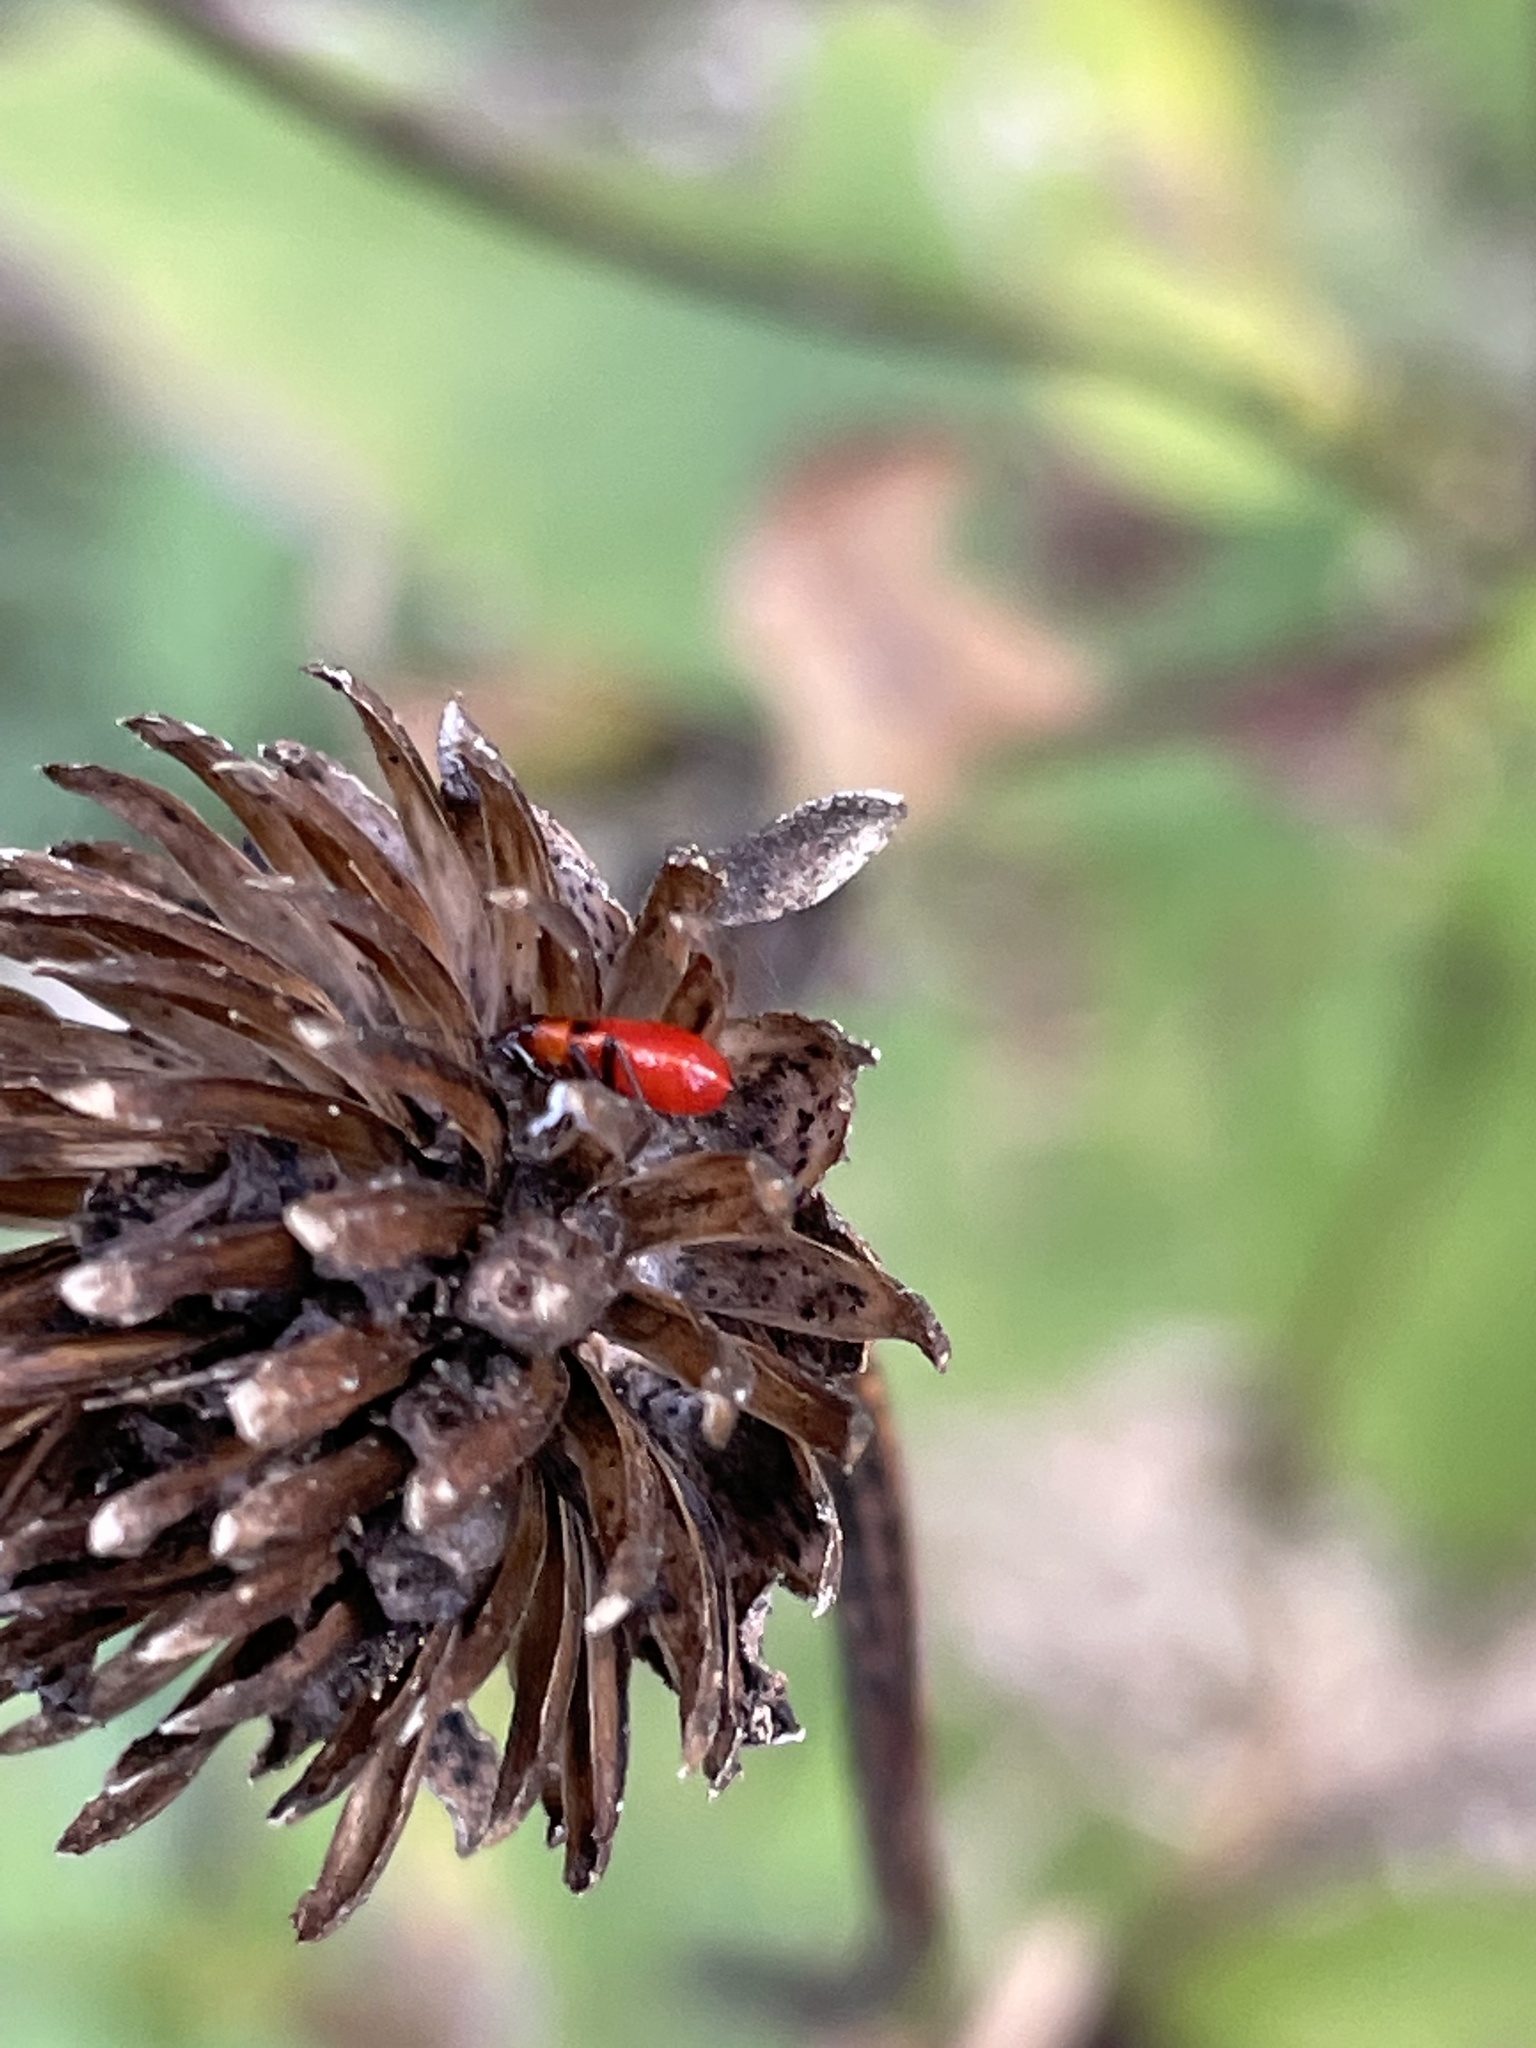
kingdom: Animalia
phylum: Arthropoda
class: Insecta
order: Hemiptera
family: Lygaeidae
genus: Lygaeus
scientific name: Lygaeus turcicus
